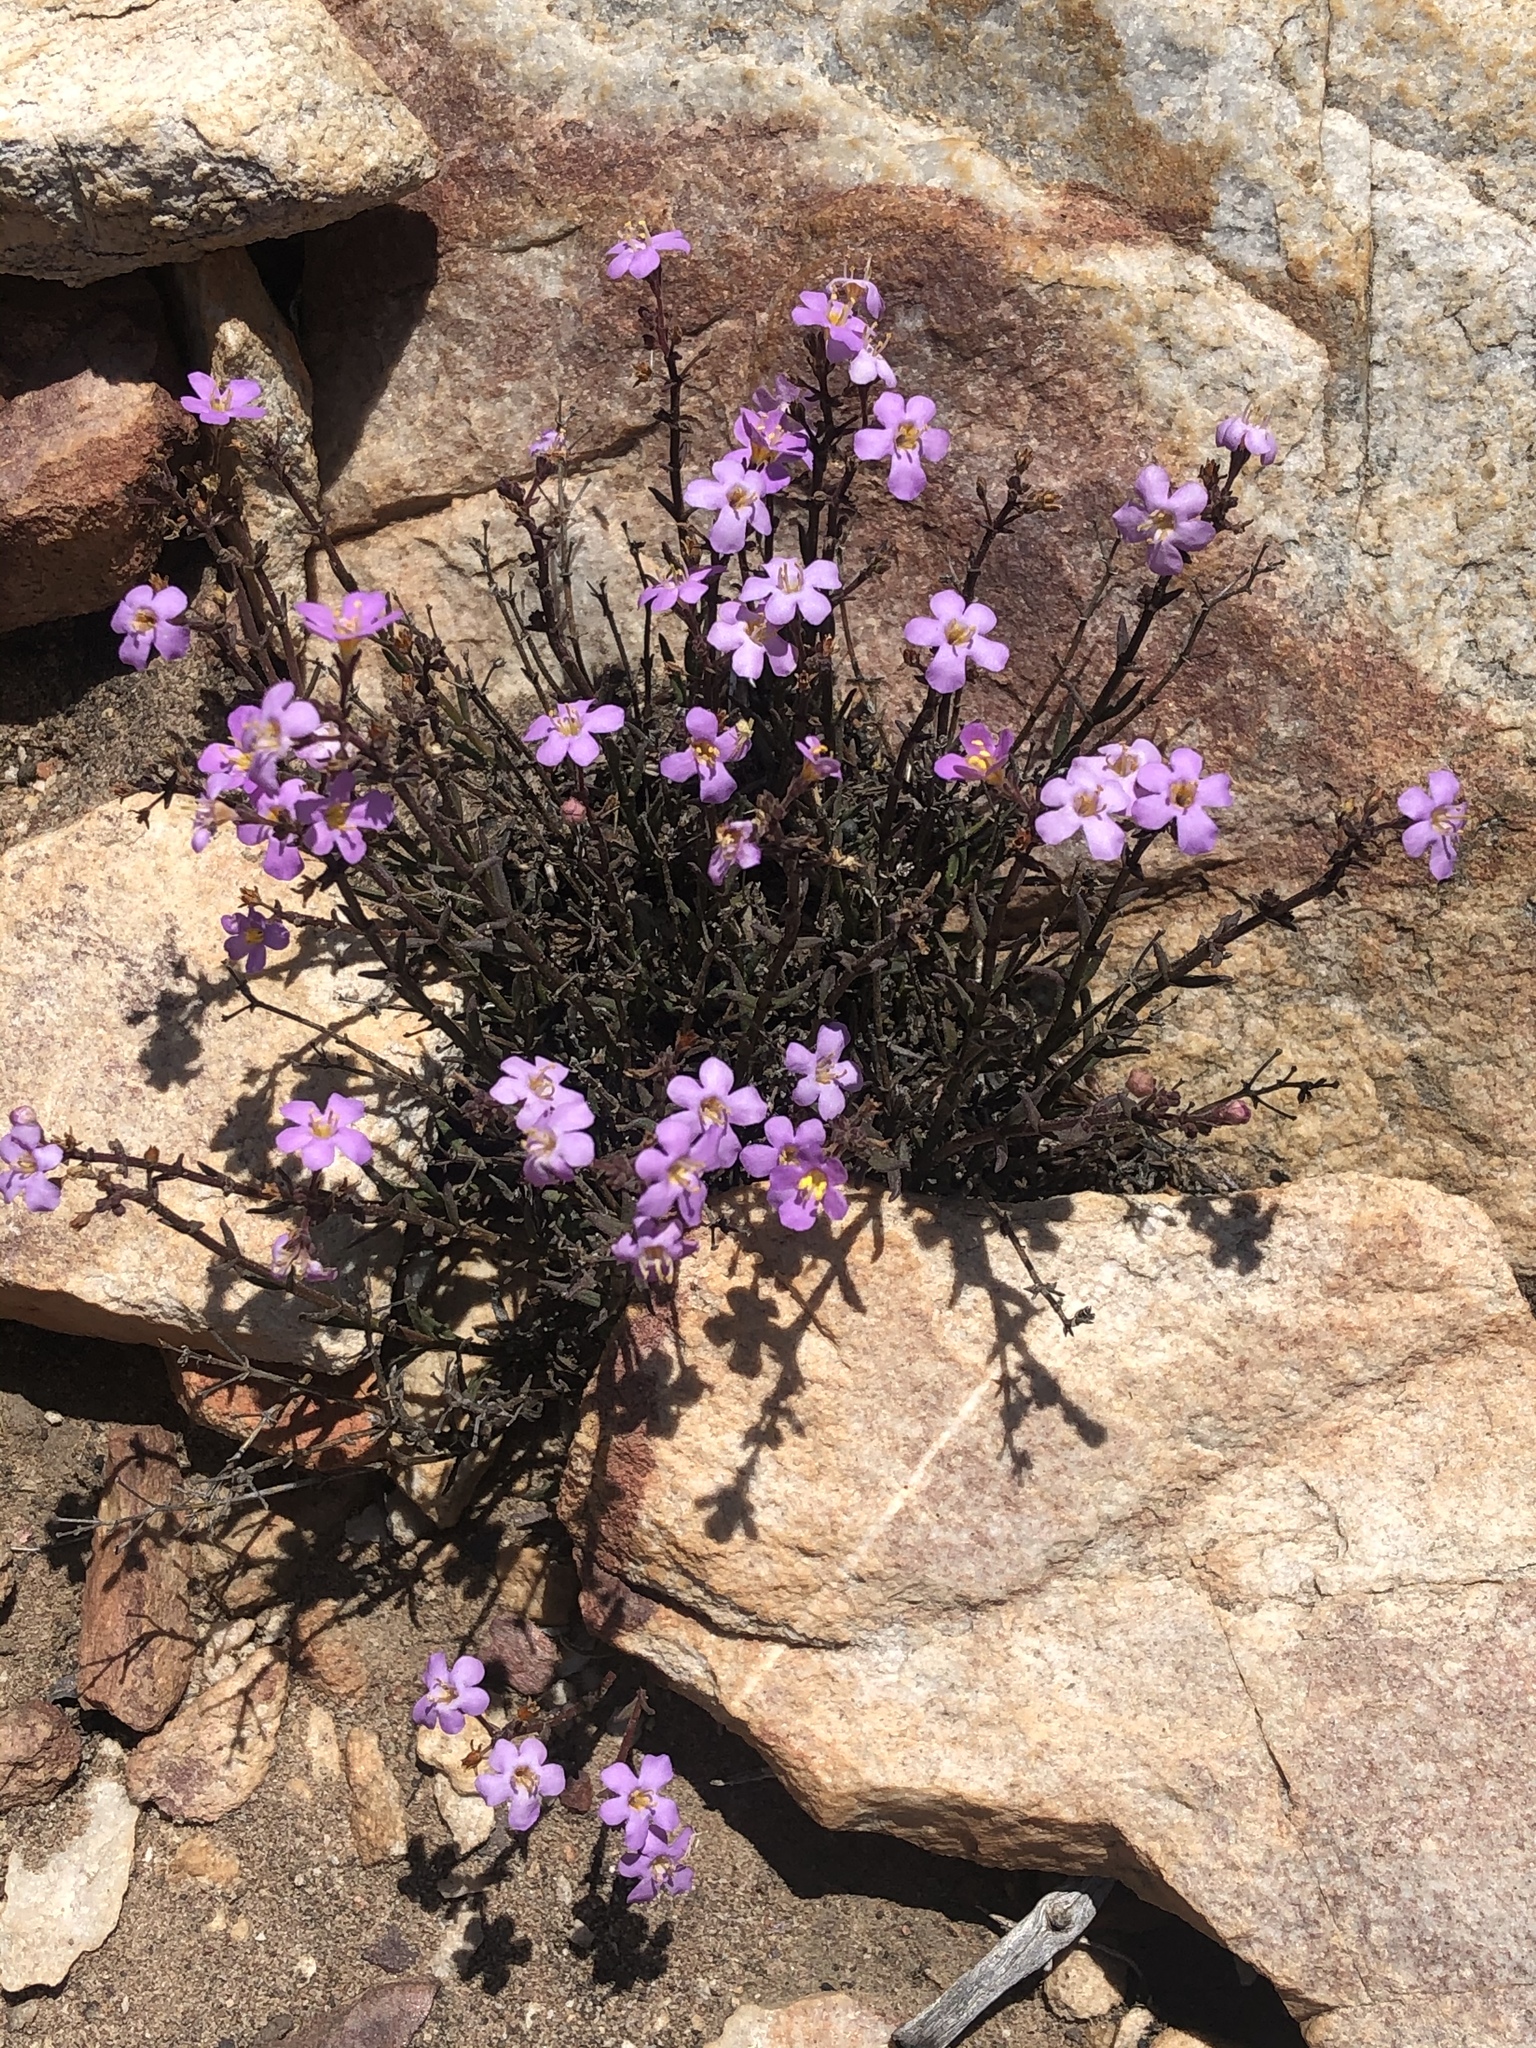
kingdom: Plantae
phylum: Tracheophyta
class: Magnoliopsida
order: Lamiales
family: Scrophulariaceae
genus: Chaenostoma
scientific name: Chaenostoma tenuicaule
